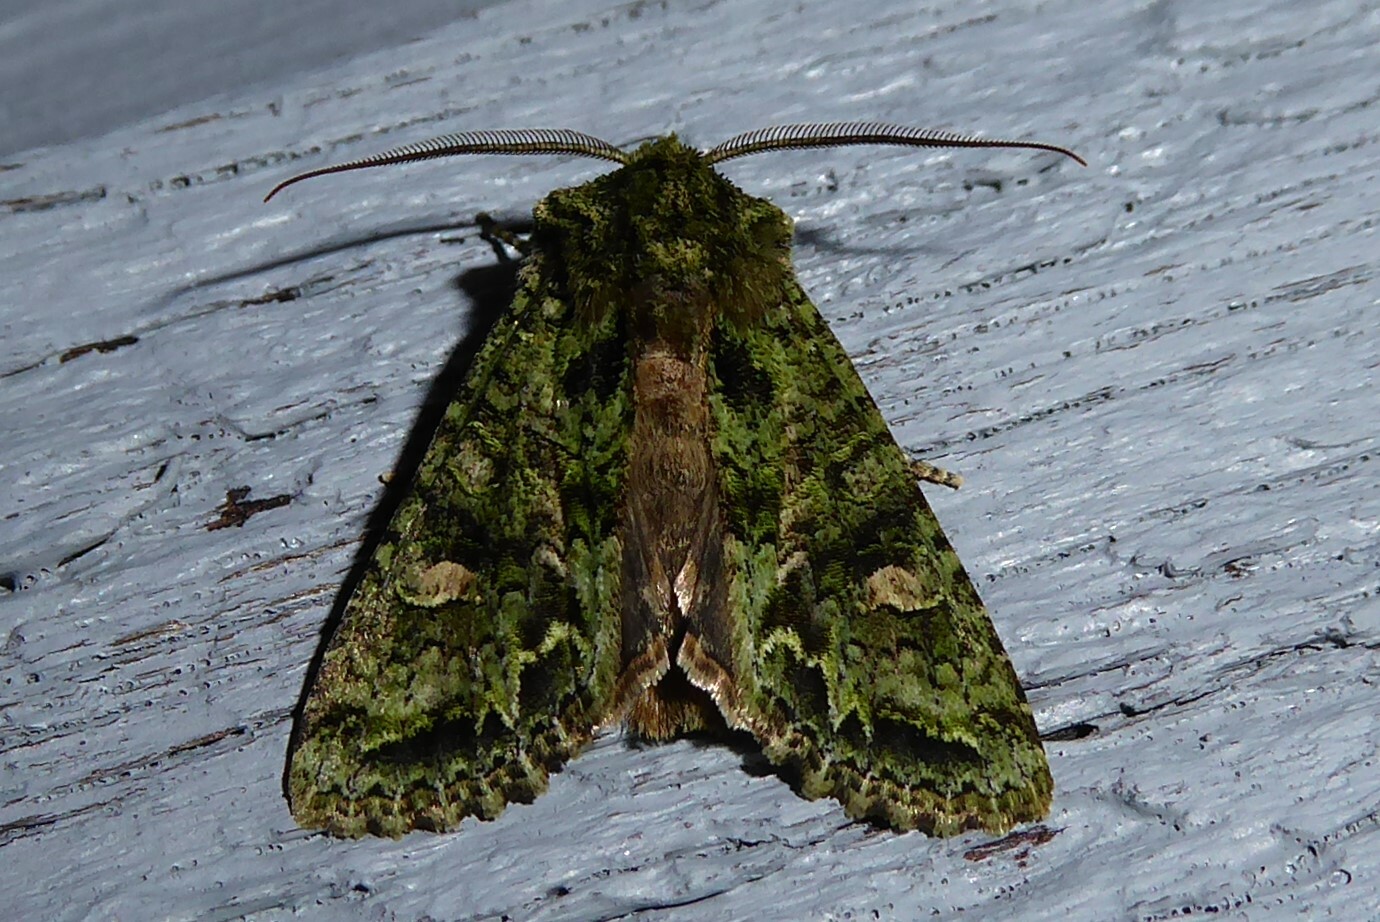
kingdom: Animalia
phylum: Arthropoda
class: Insecta
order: Lepidoptera
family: Noctuidae
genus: Ichneutica
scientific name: Ichneutica
